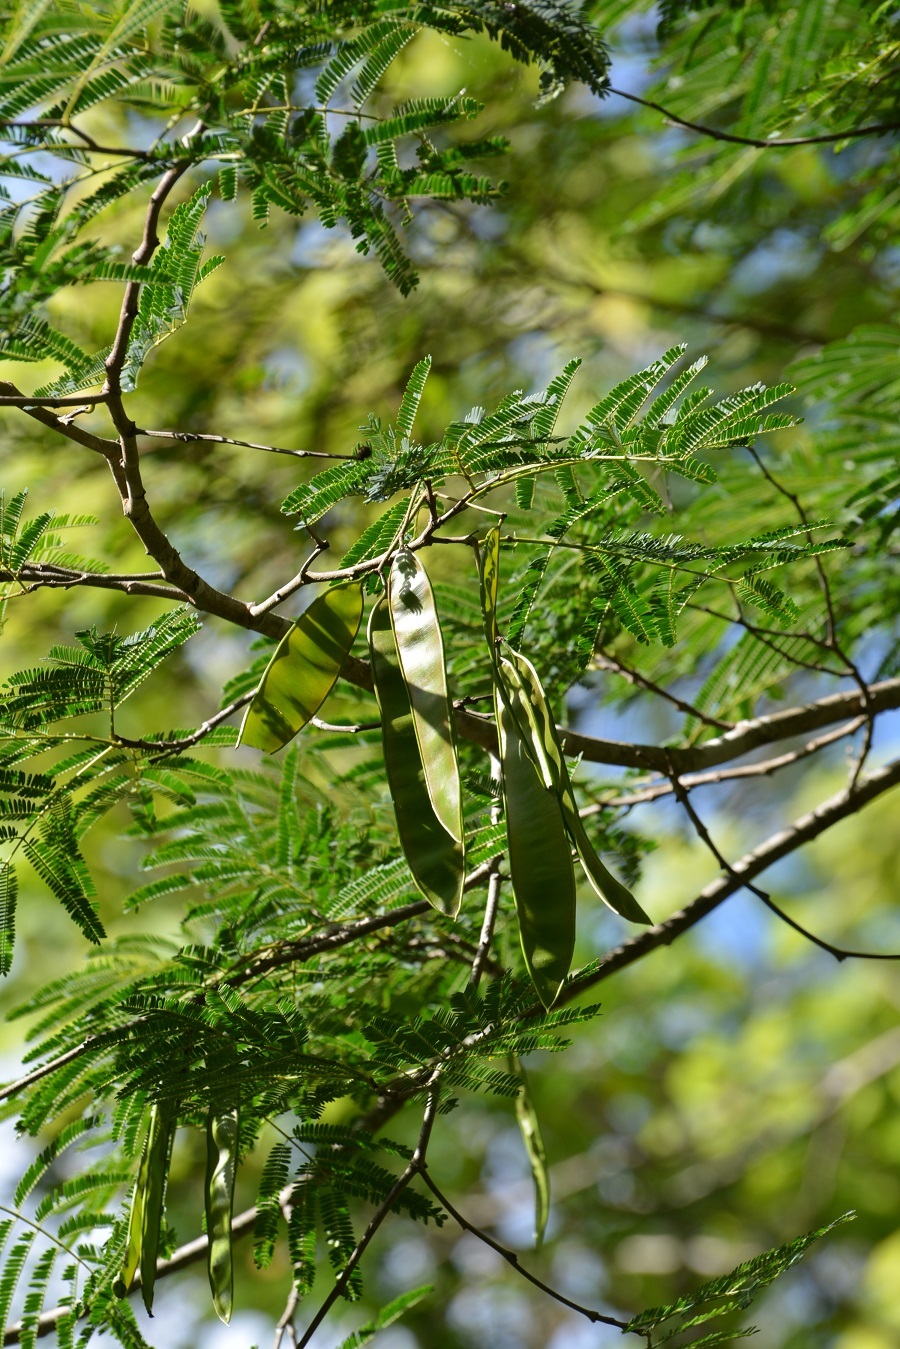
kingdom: Plantae
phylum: Tracheophyta
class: Magnoliopsida
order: Fabales
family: Fabaceae
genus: Lysiloma
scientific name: Lysiloma auritum
